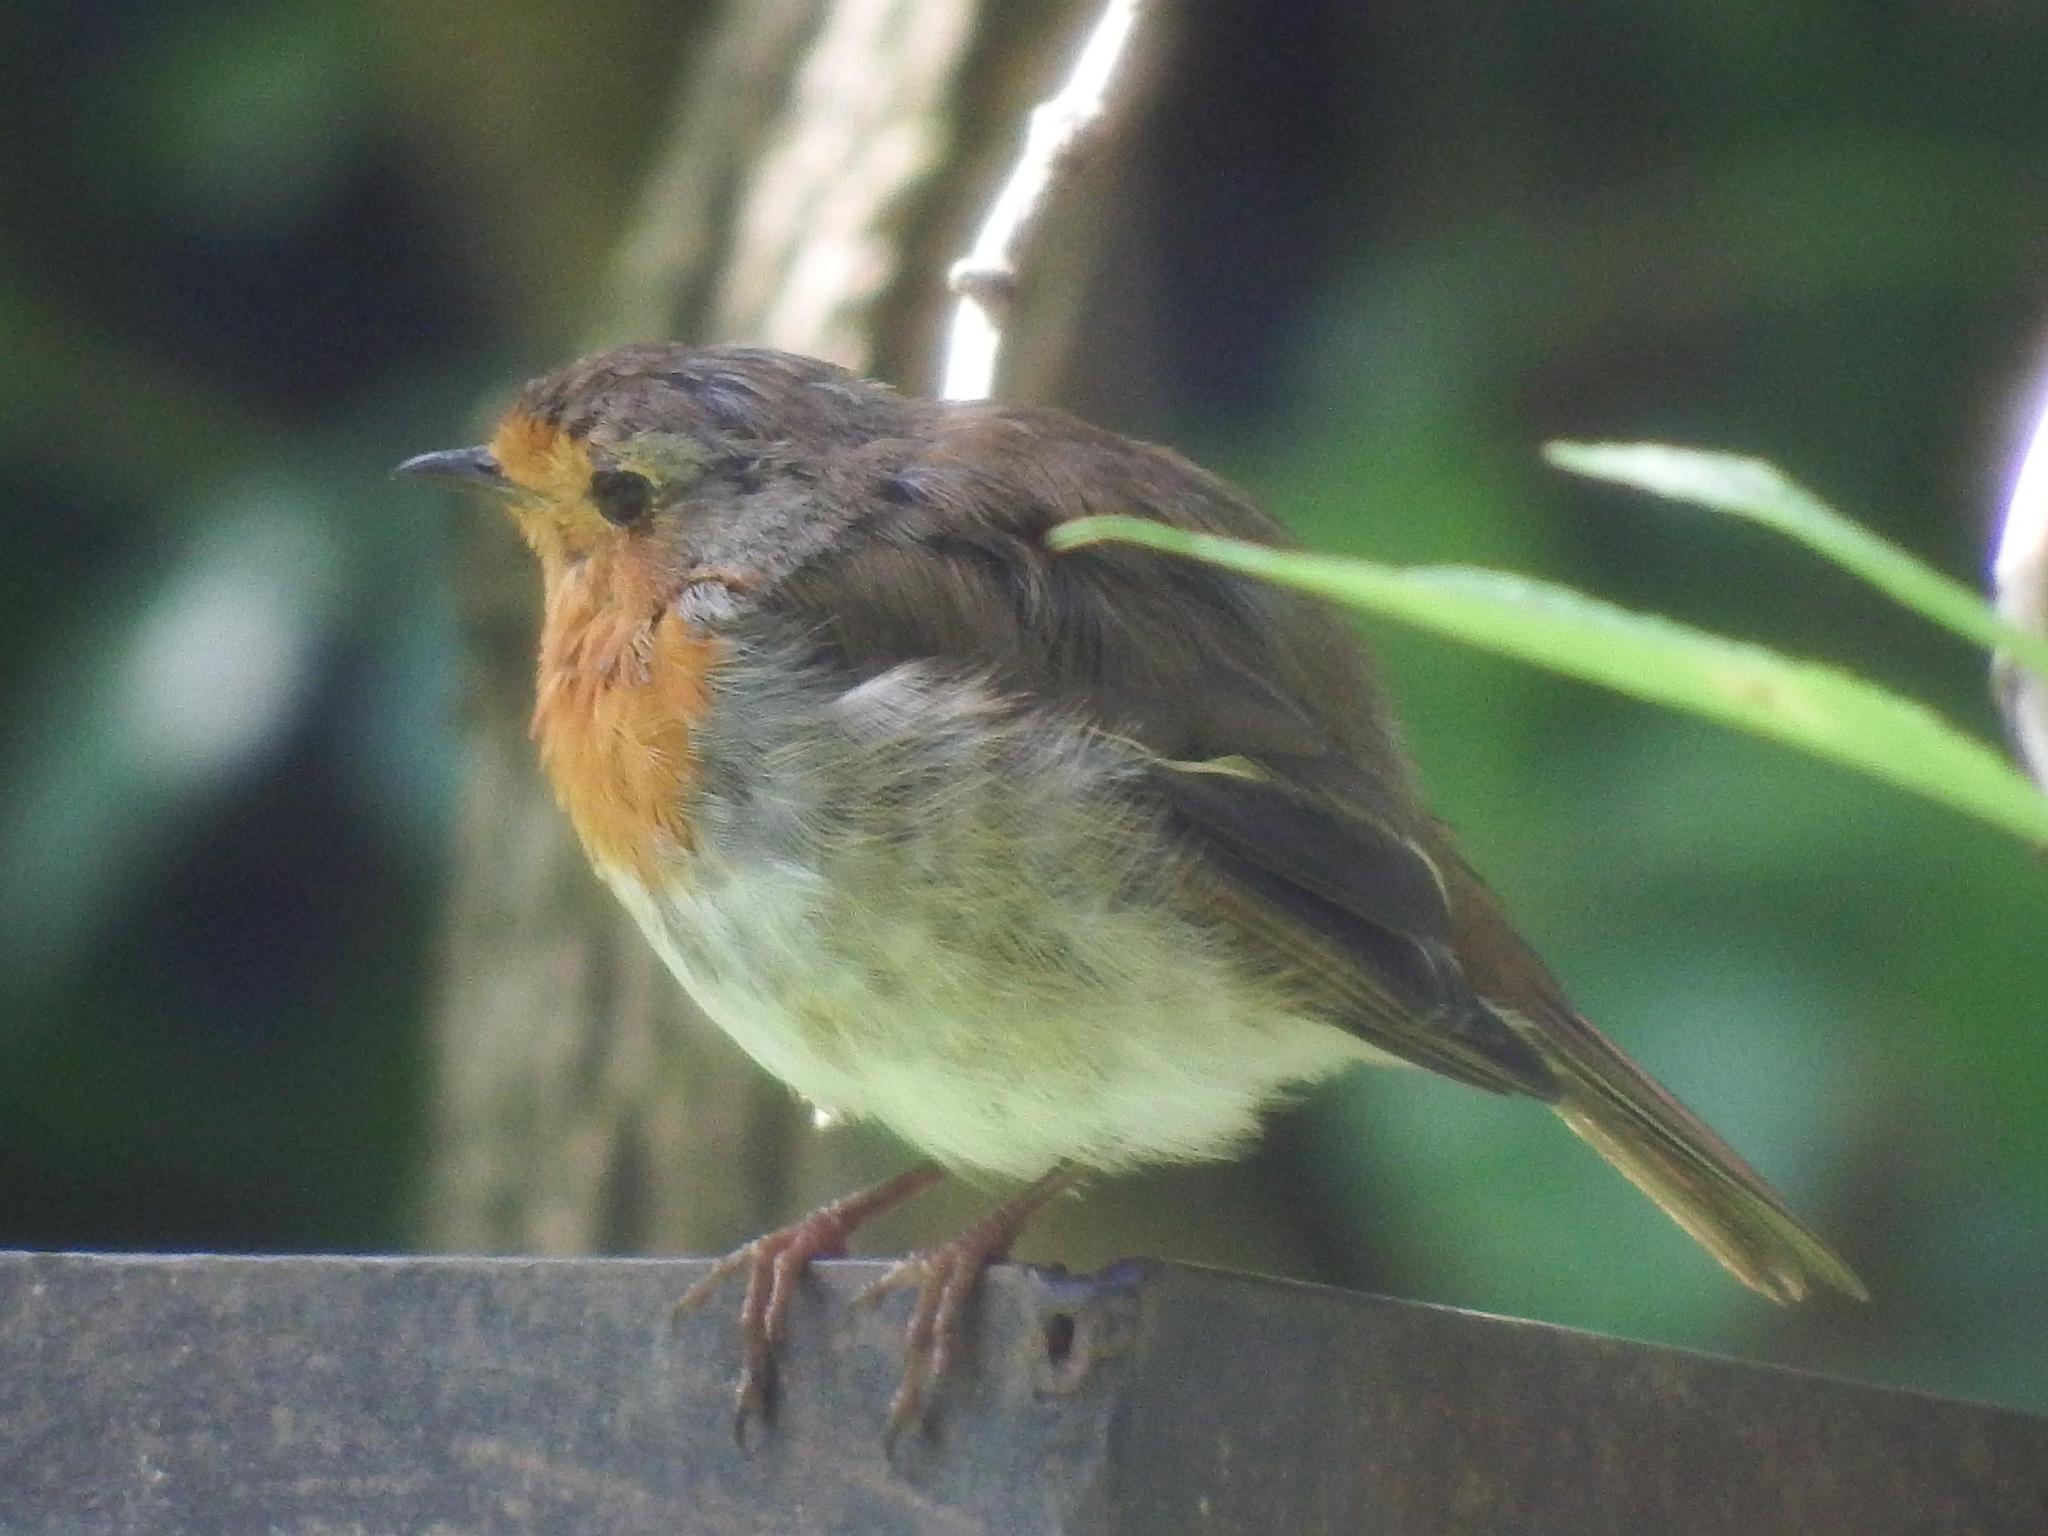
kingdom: Animalia
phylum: Chordata
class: Aves
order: Passeriformes
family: Muscicapidae
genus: Erithacus
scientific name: Erithacus rubecula
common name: European robin
